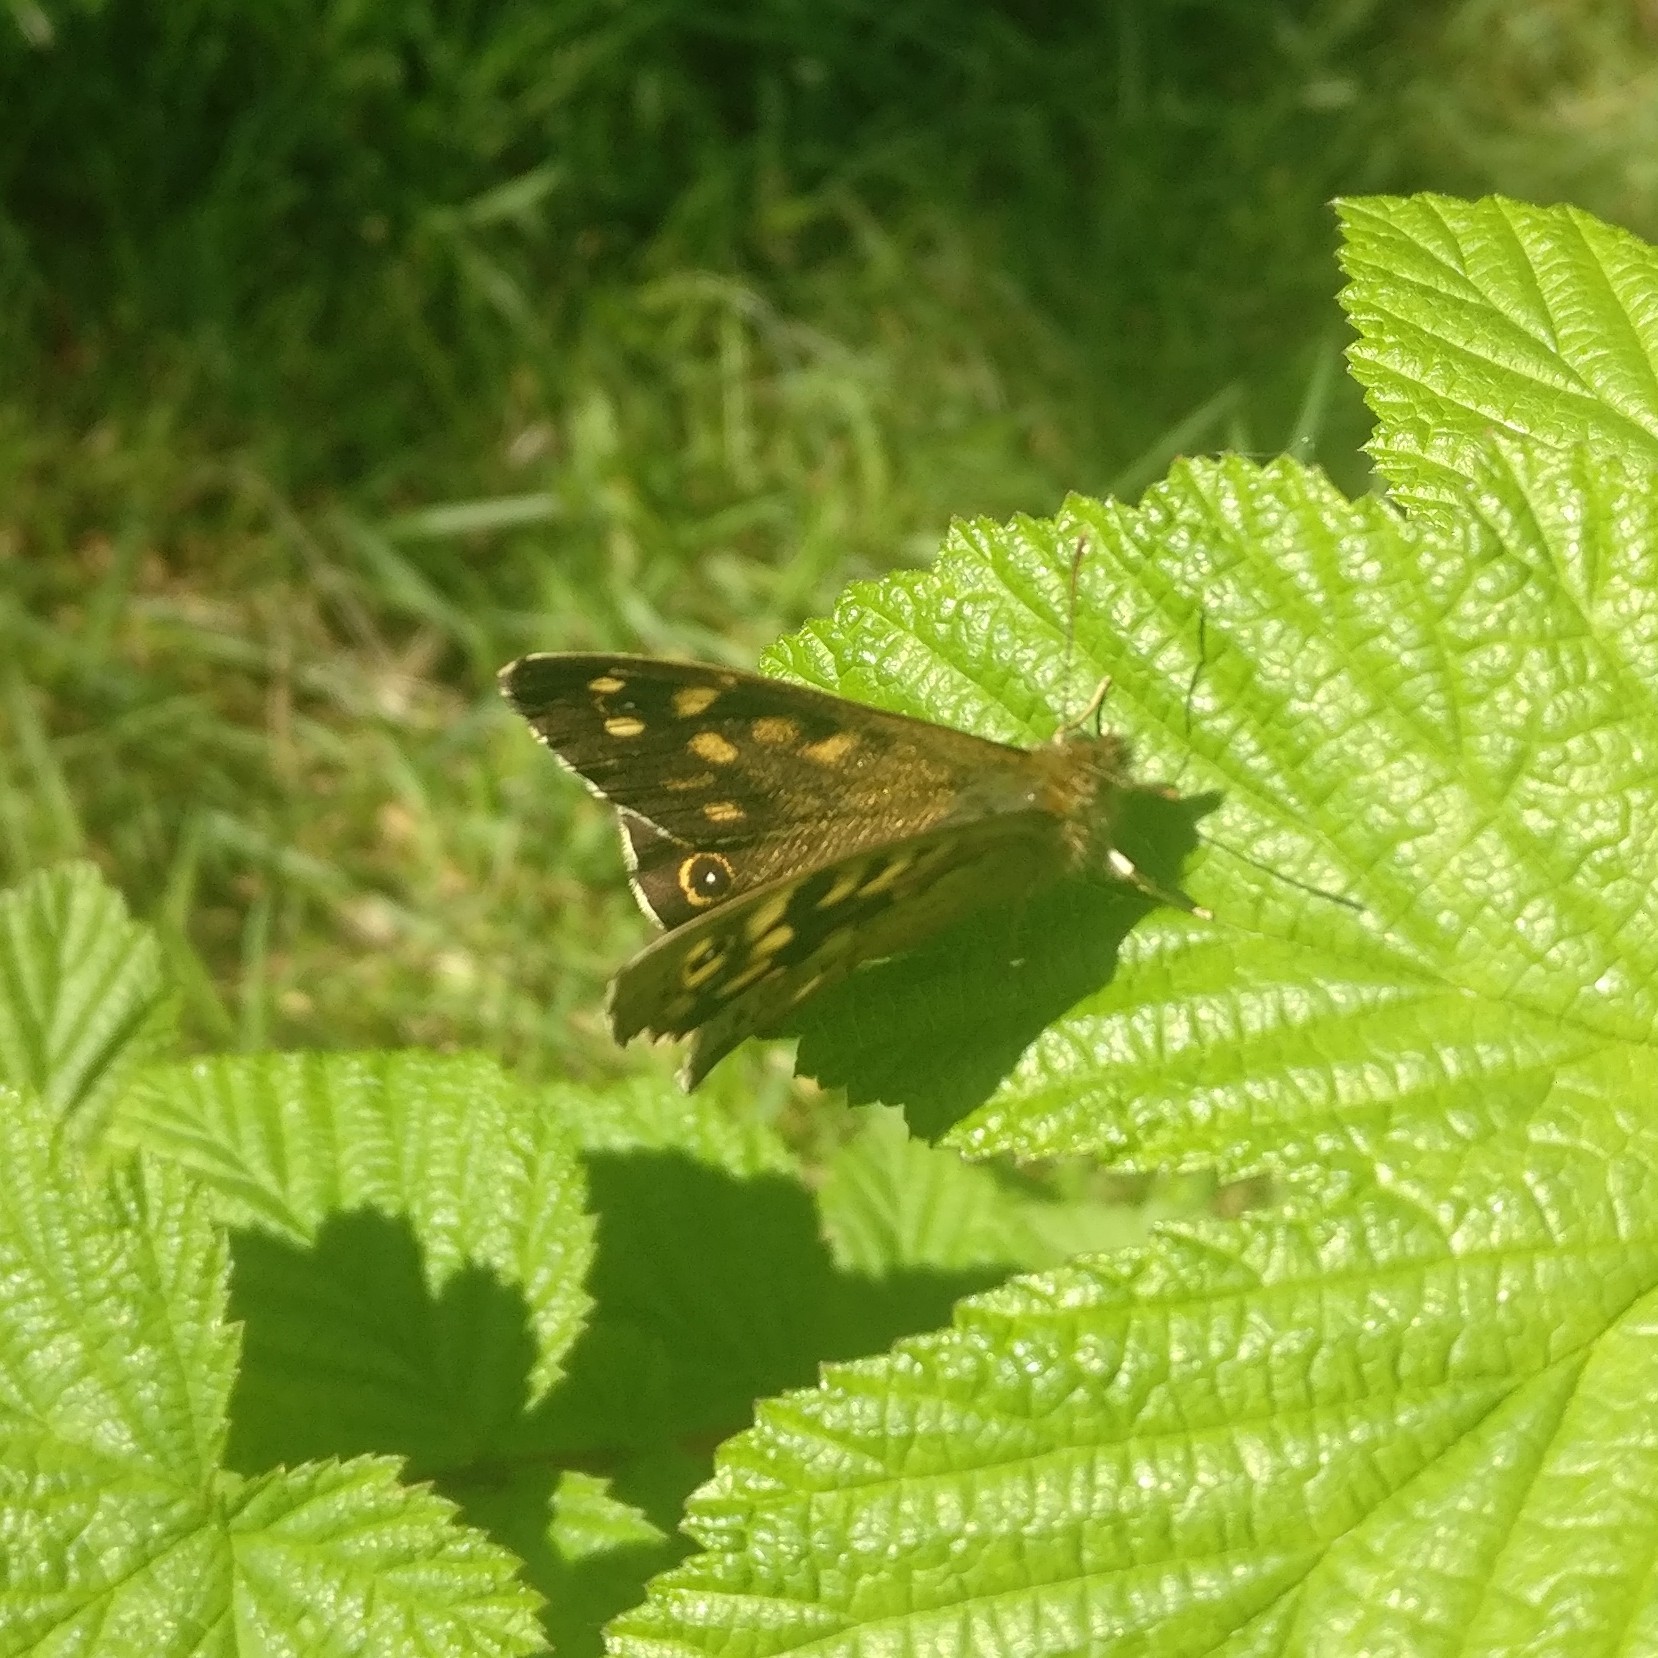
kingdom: Animalia
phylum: Arthropoda
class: Insecta
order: Lepidoptera
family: Nymphalidae
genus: Pararge
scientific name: Pararge aegeria
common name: Speckled wood
